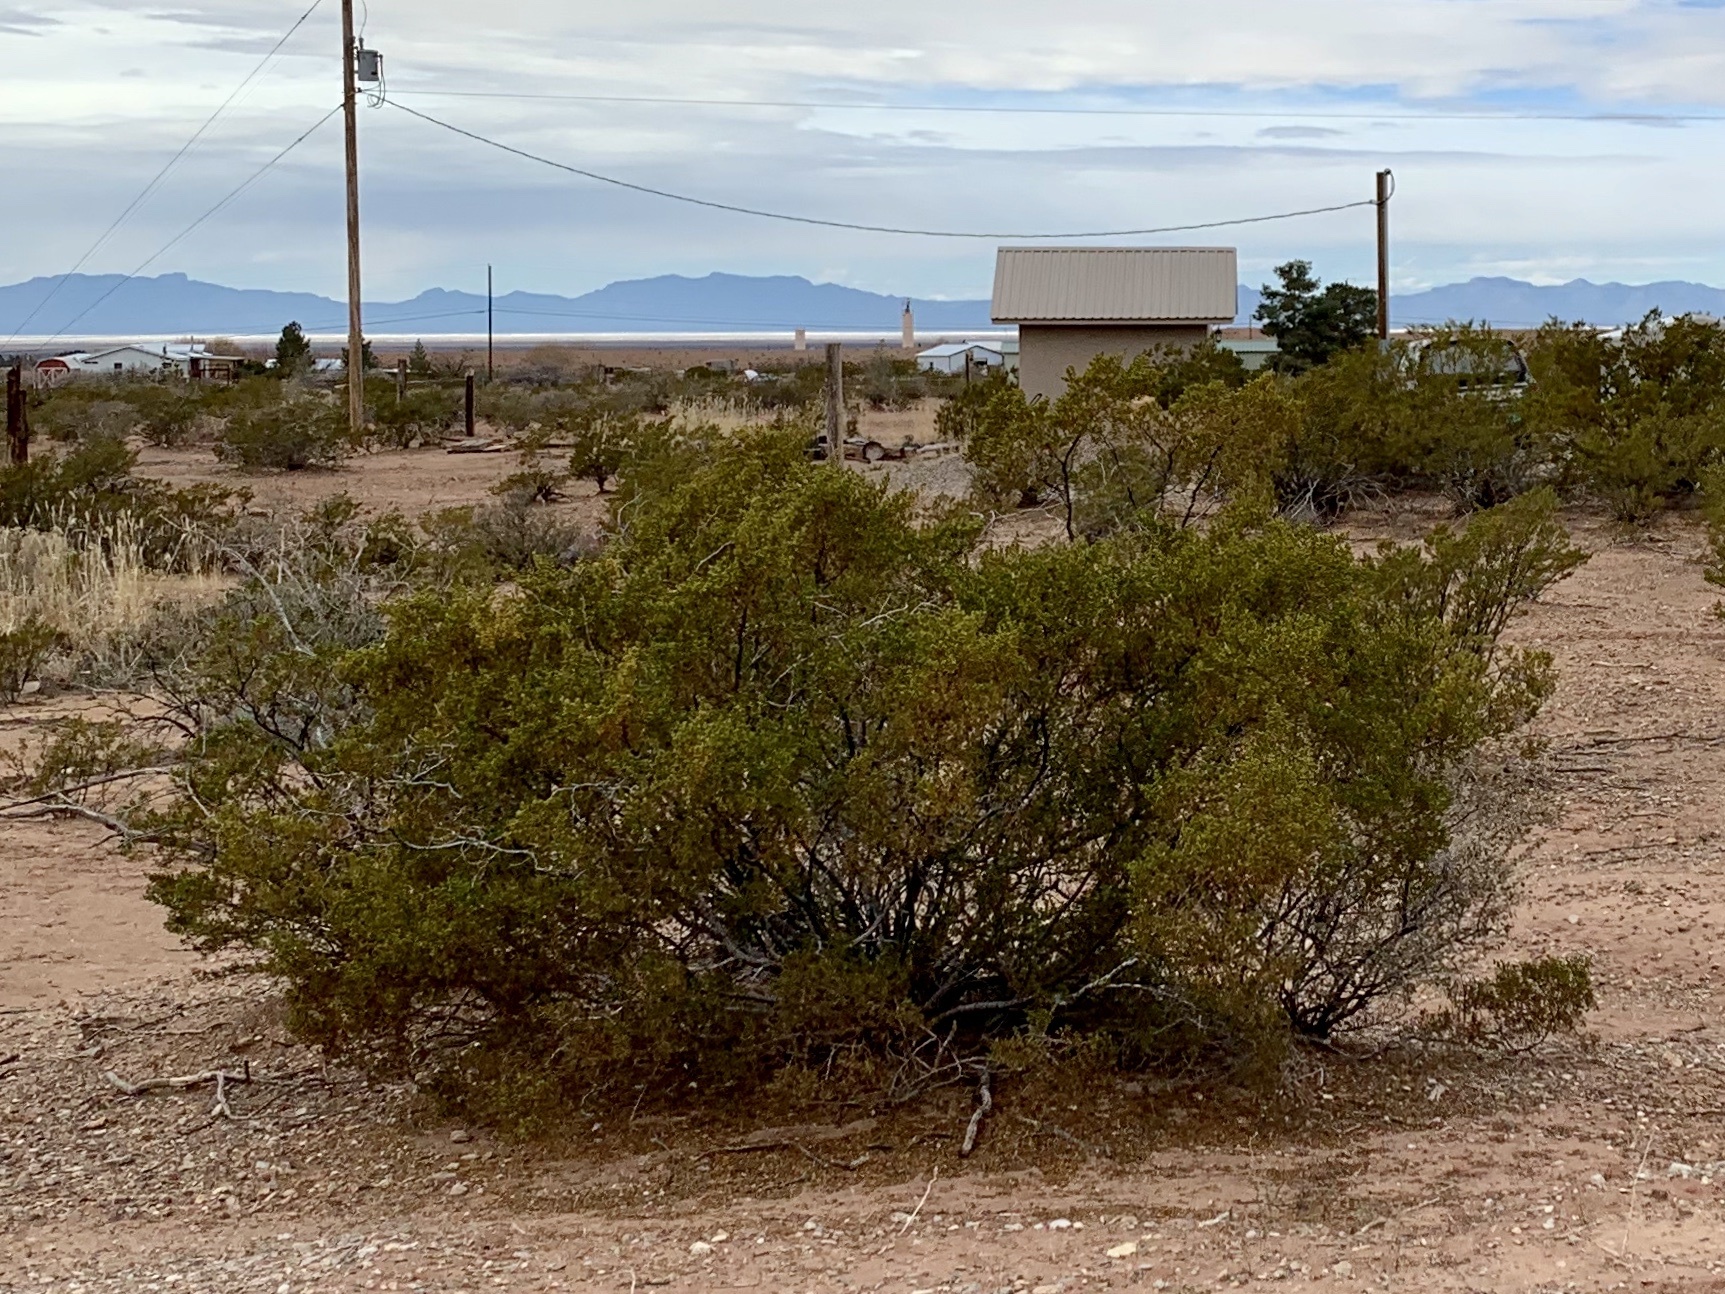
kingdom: Plantae
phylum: Tracheophyta
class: Magnoliopsida
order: Zygophyllales
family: Zygophyllaceae
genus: Larrea
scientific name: Larrea tridentata
